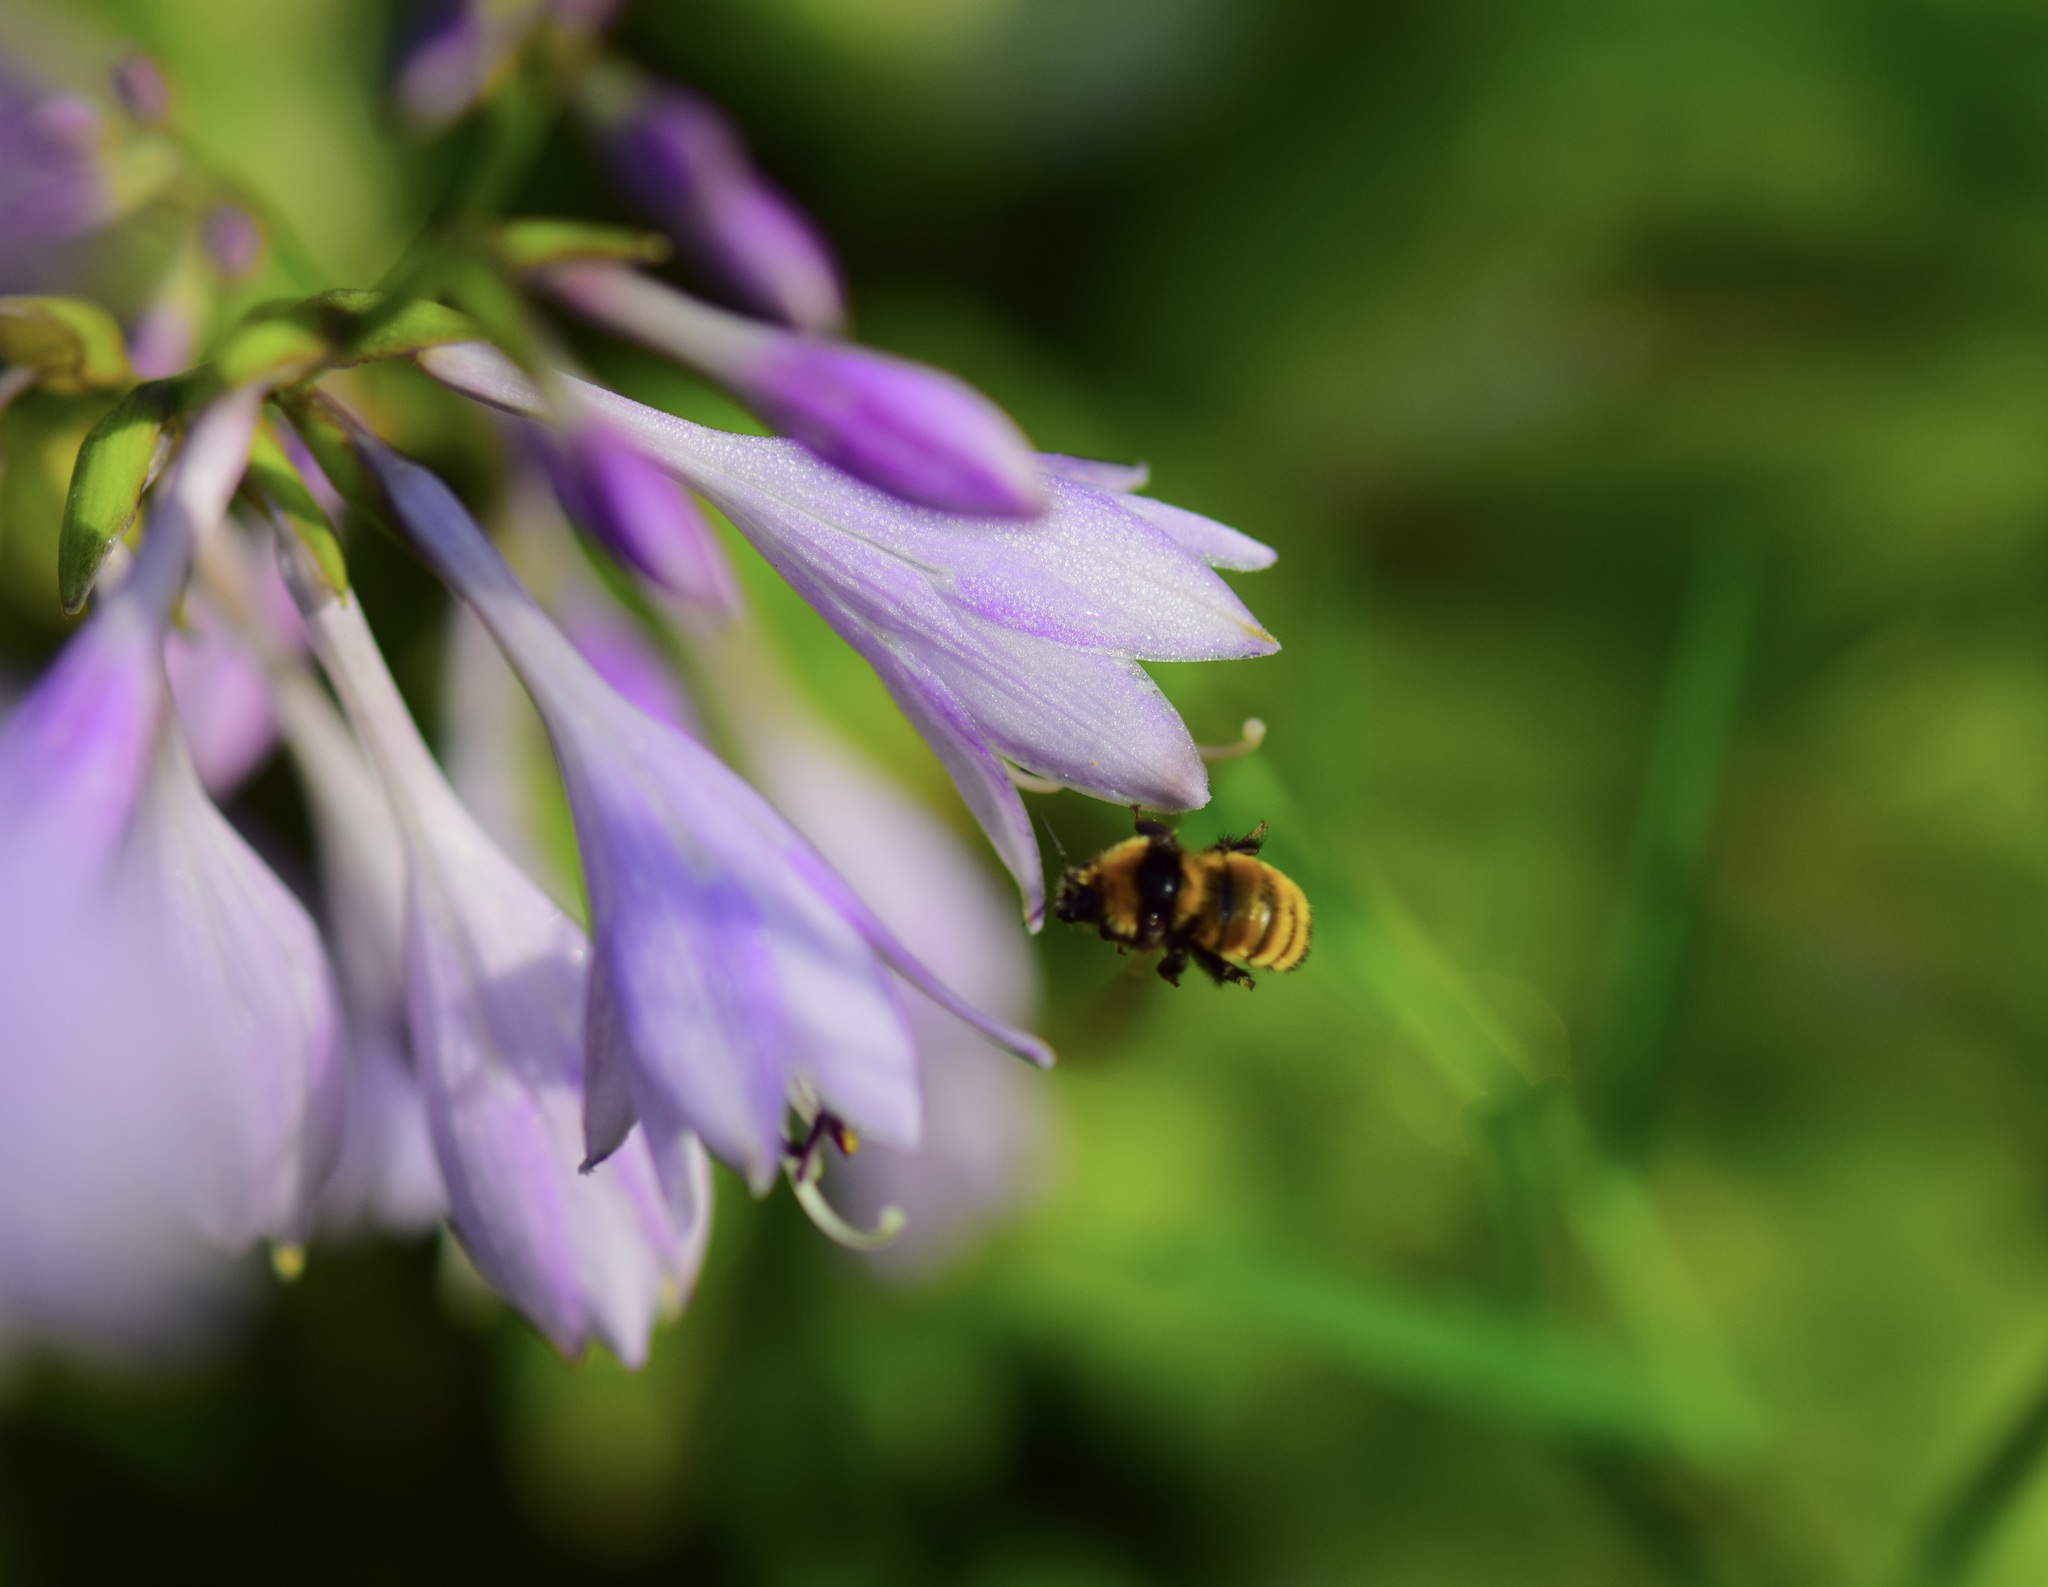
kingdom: Animalia
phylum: Arthropoda
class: Insecta
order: Hymenoptera
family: Apidae
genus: Bombus
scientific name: Bombus borealis
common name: Northern amber bumble bee
